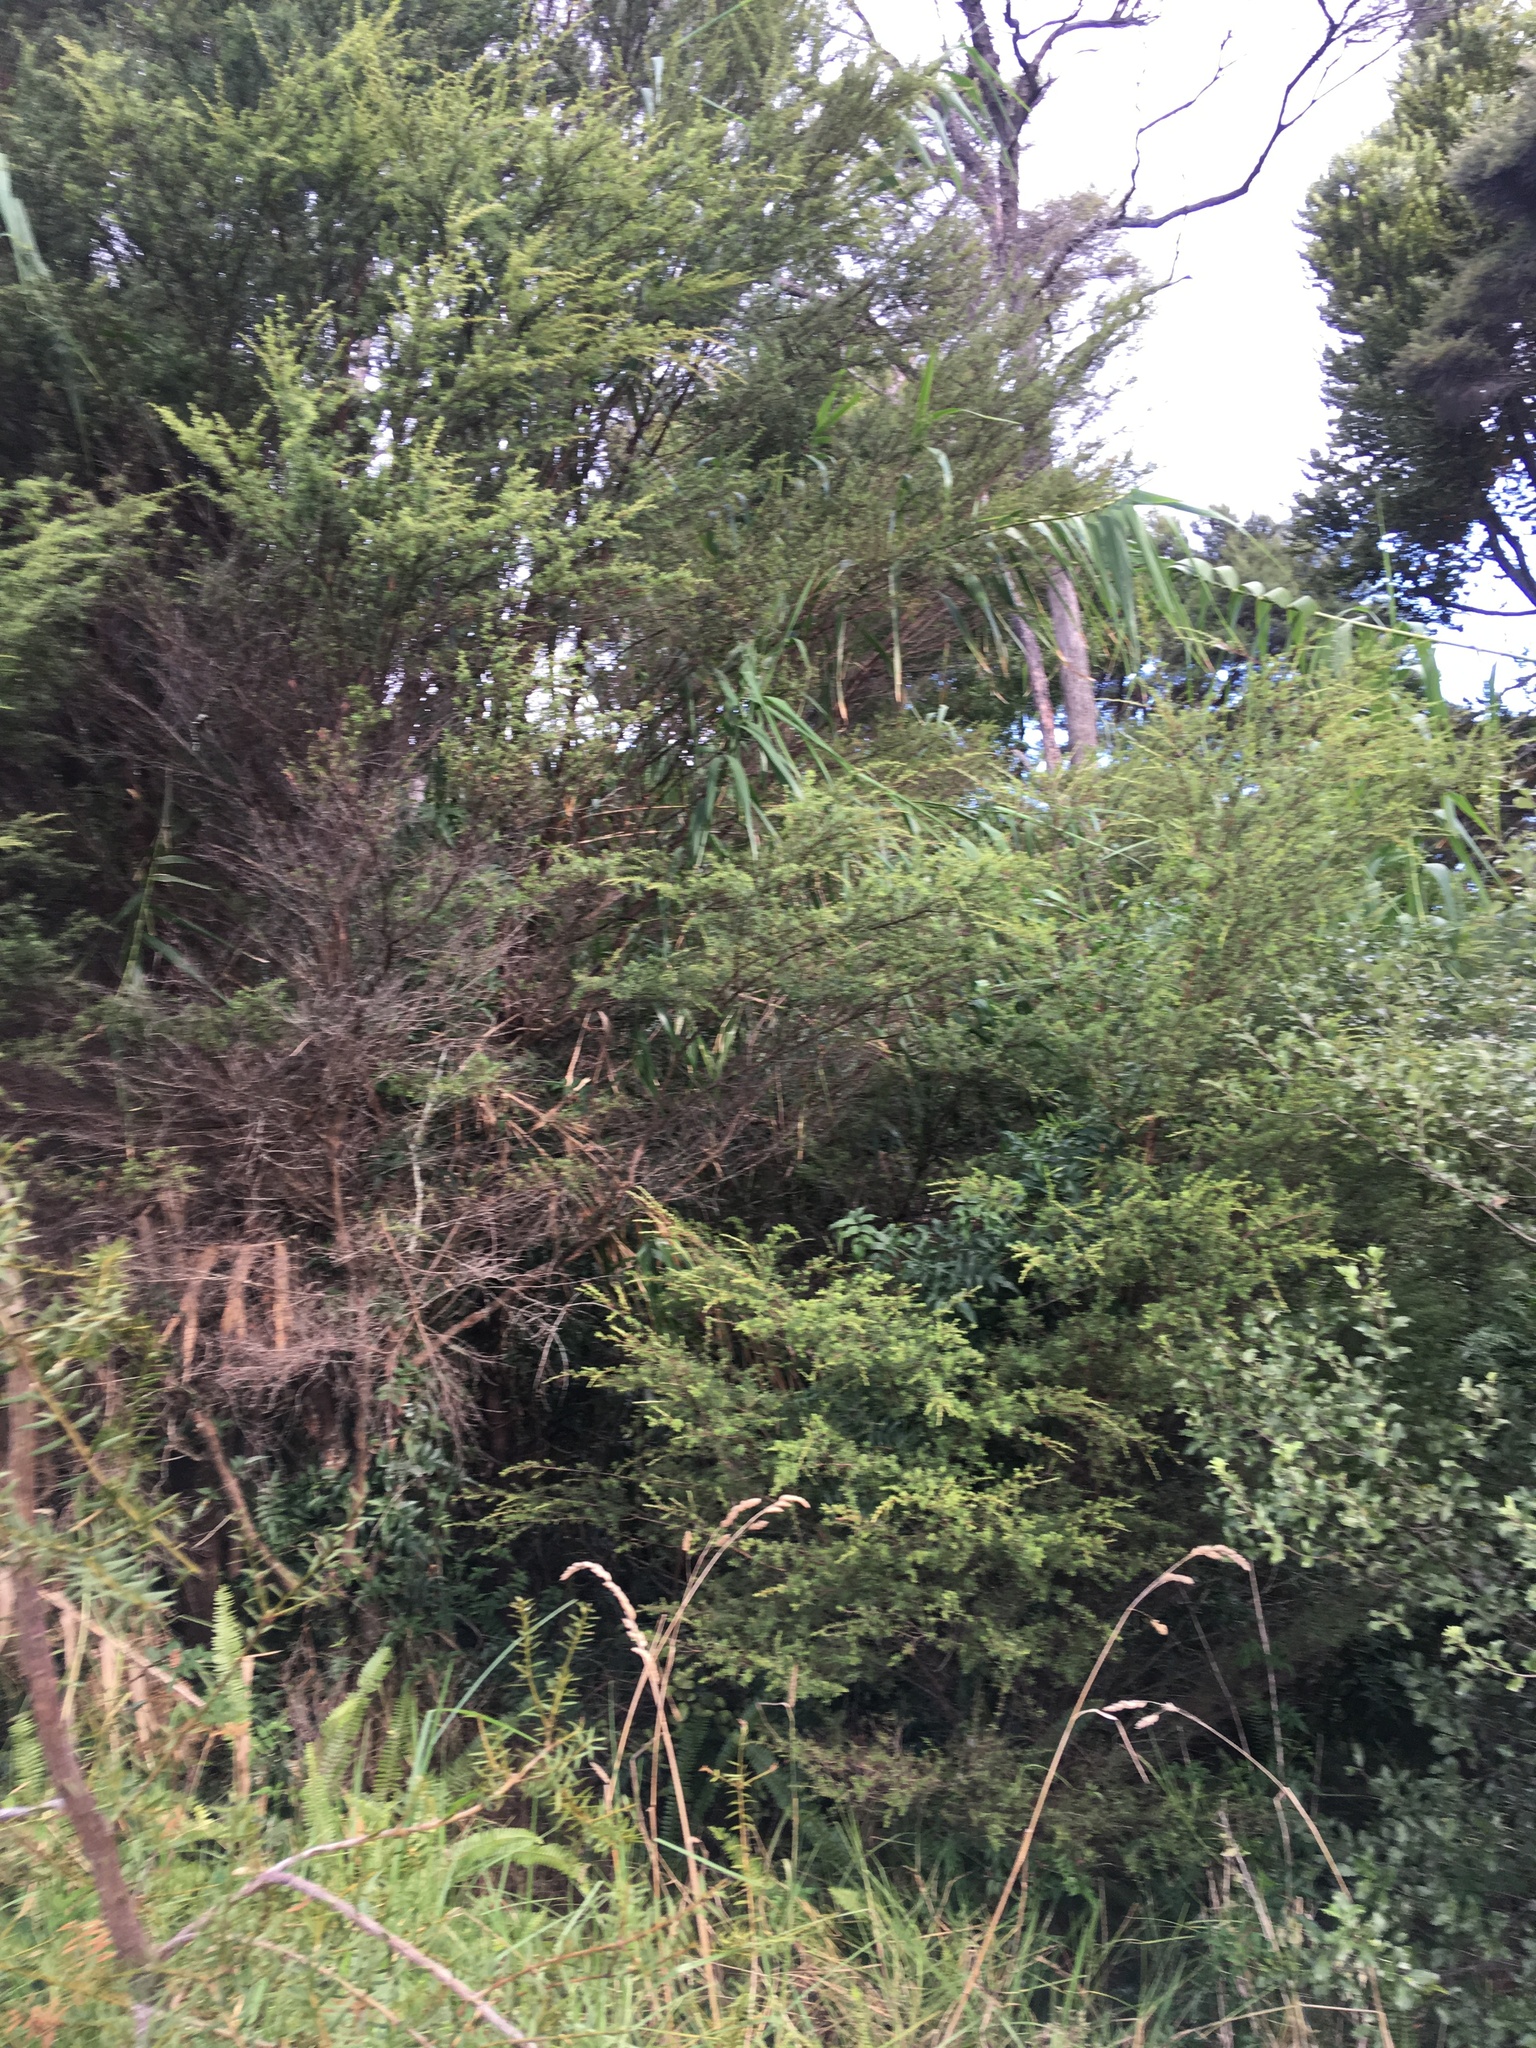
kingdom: Plantae
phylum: Tracheophyta
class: Liliopsida
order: Poales
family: Poaceae
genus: Arundo
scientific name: Arundo donax
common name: Giant reed
